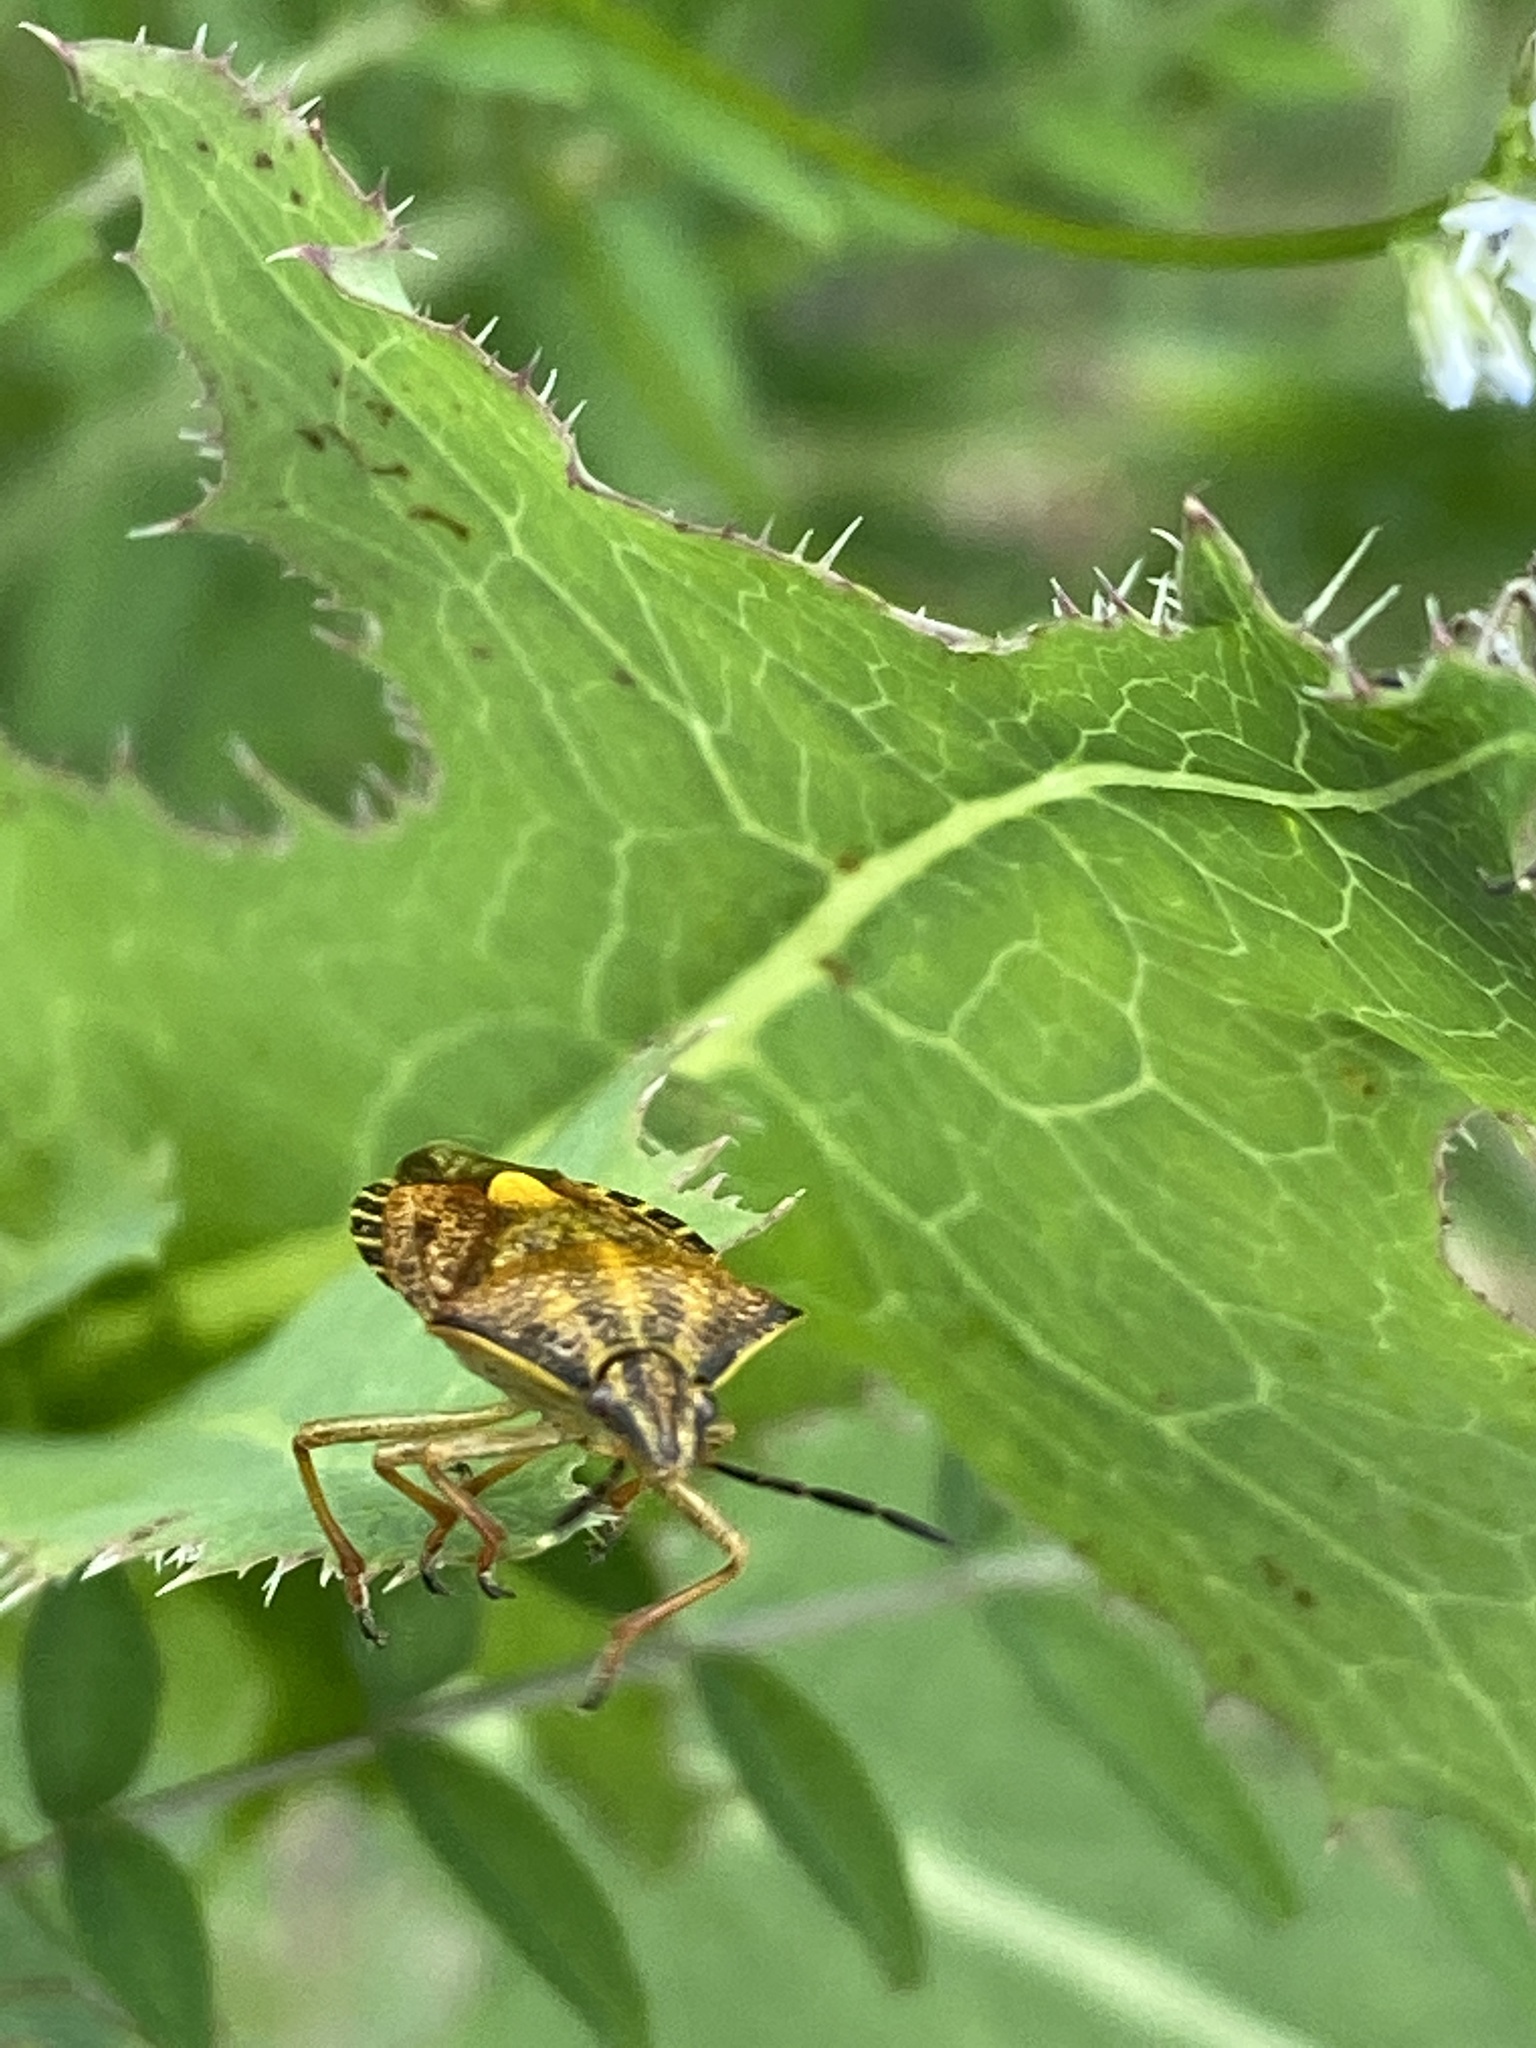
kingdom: Animalia
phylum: Arthropoda
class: Insecta
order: Hemiptera
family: Pentatomidae
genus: Carpocoris
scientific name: Carpocoris purpureipennis
